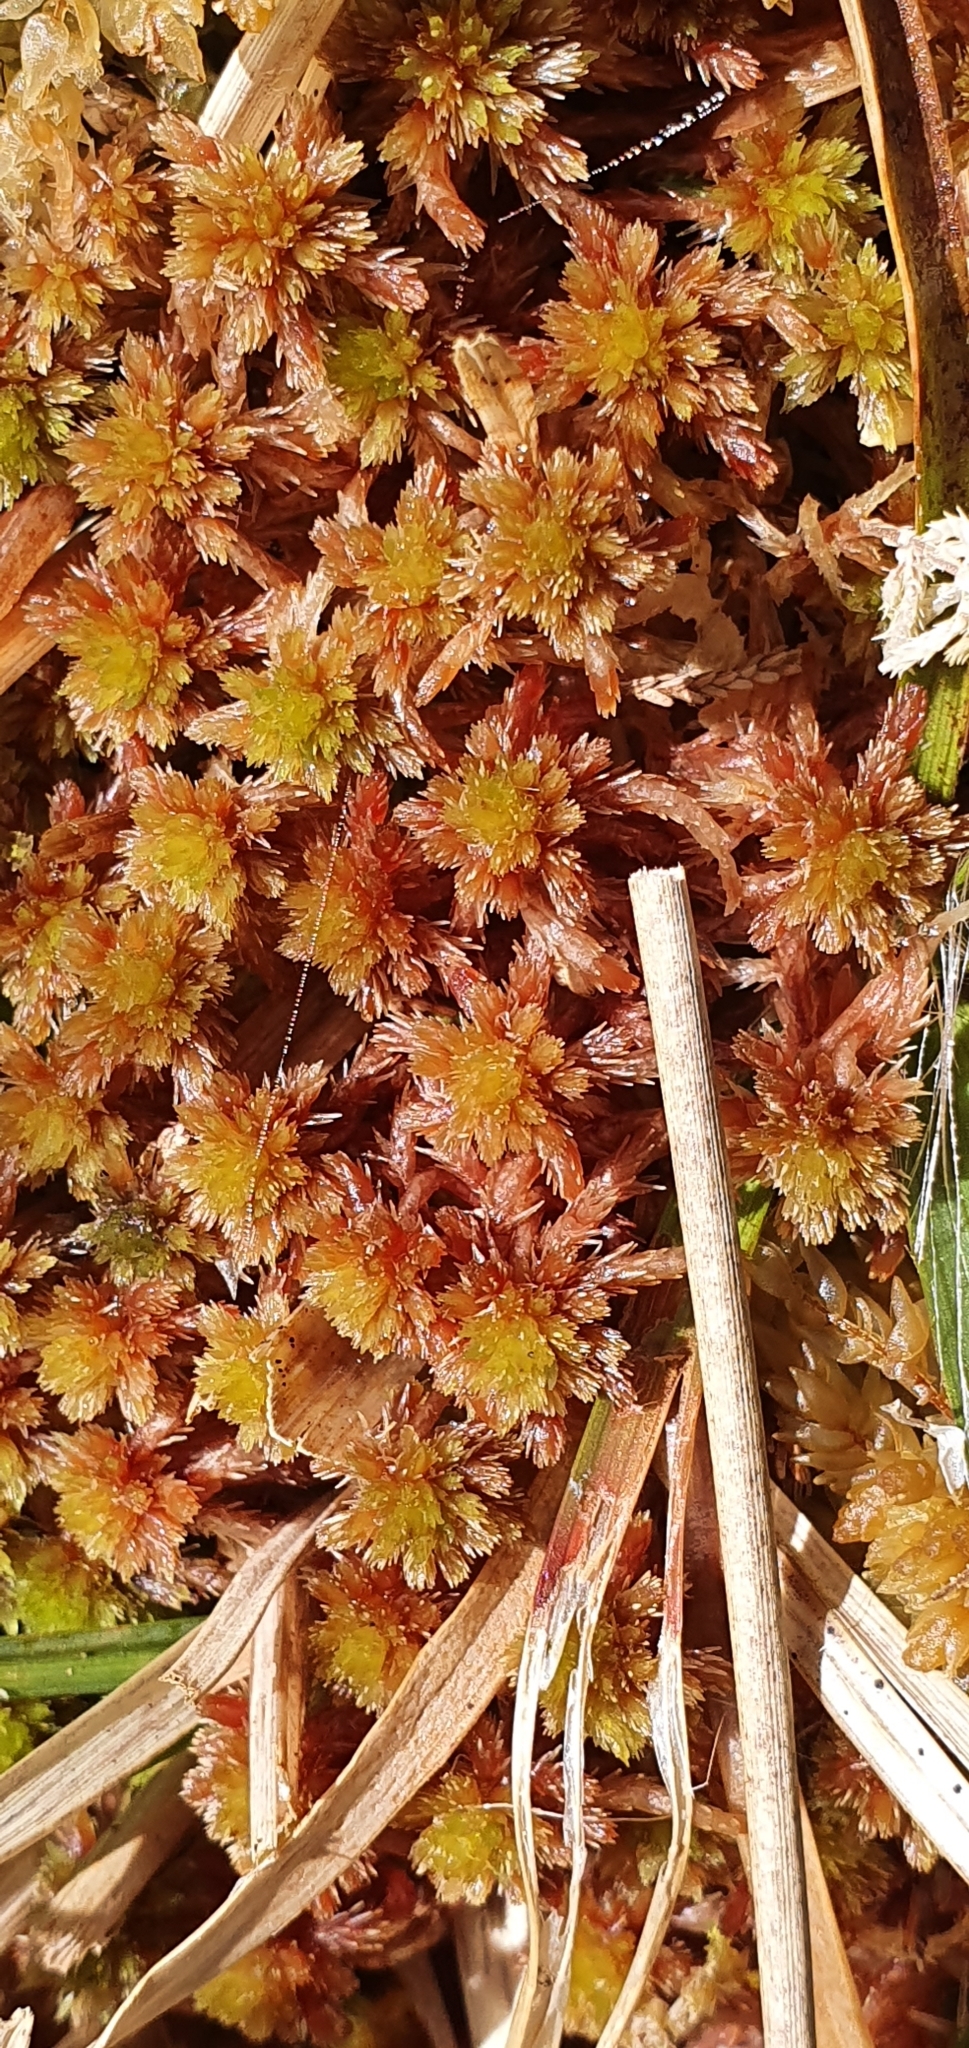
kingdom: Plantae
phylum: Bryophyta
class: Sphagnopsida
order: Sphagnales
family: Sphagnaceae
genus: Sphagnum
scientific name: Sphagnum subnitens
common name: Lustrous bog-moss
